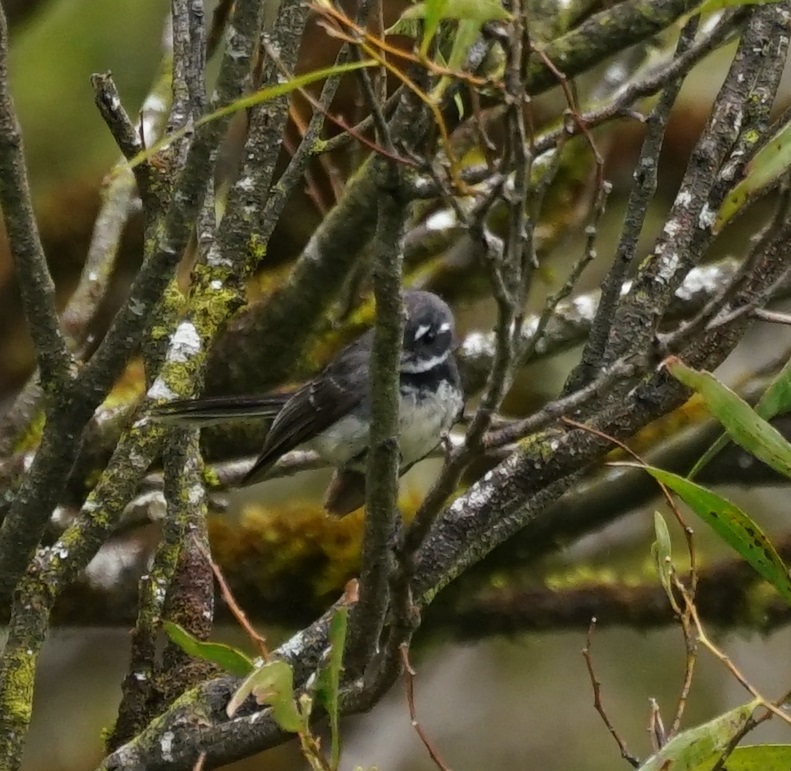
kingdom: Animalia
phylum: Chordata
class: Aves
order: Passeriformes
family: Rhipiduridae
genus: Rhipidura
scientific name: Rhipidura albiscapa
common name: Grey fantail
